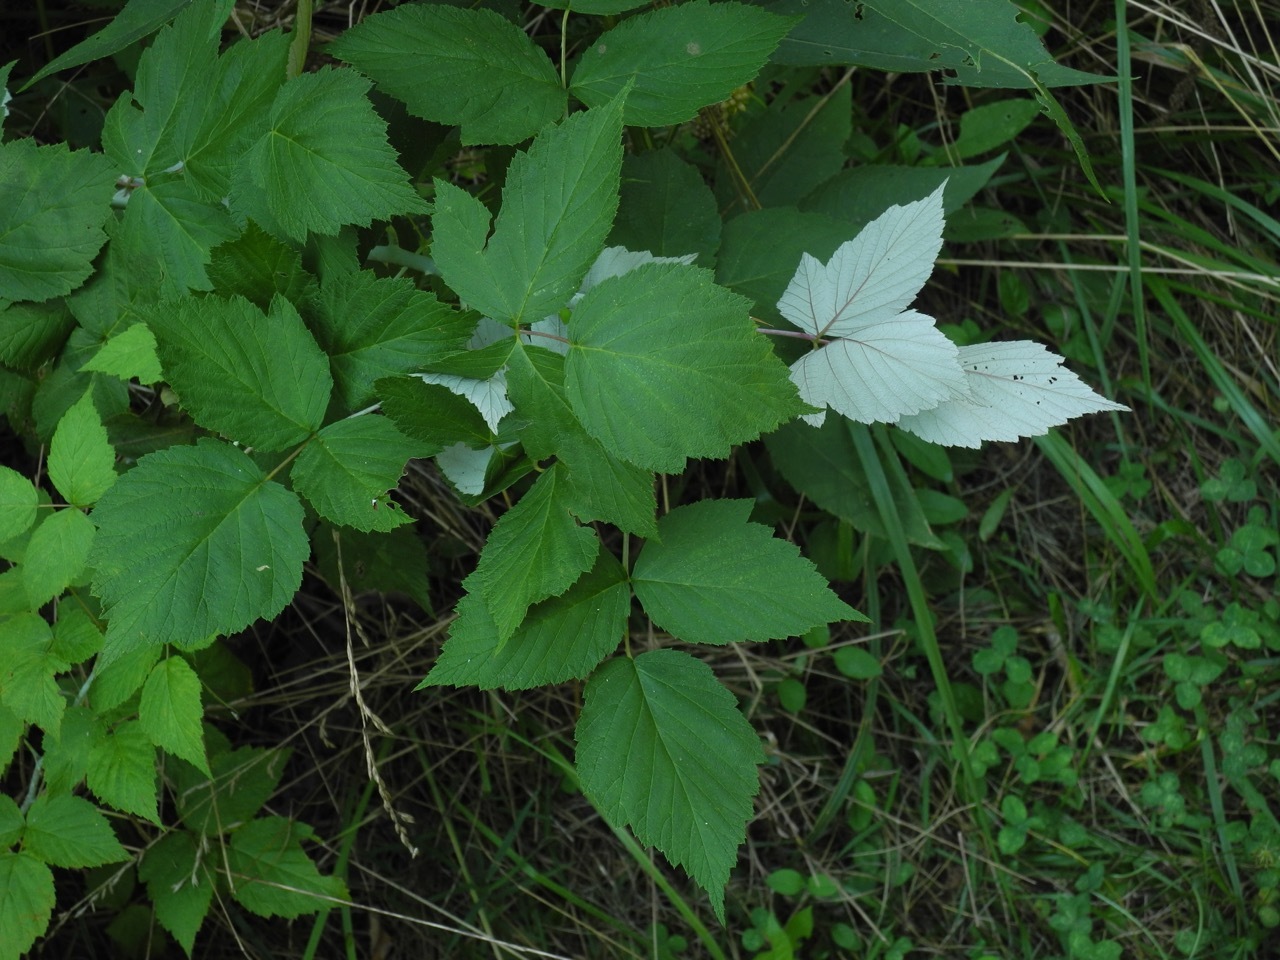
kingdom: Plantae
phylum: Tracheophyta
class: Magnoliopsida
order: Rosales
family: Rosaceae
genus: Rubus
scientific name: Rubus occidentalis
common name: Black raspberry
